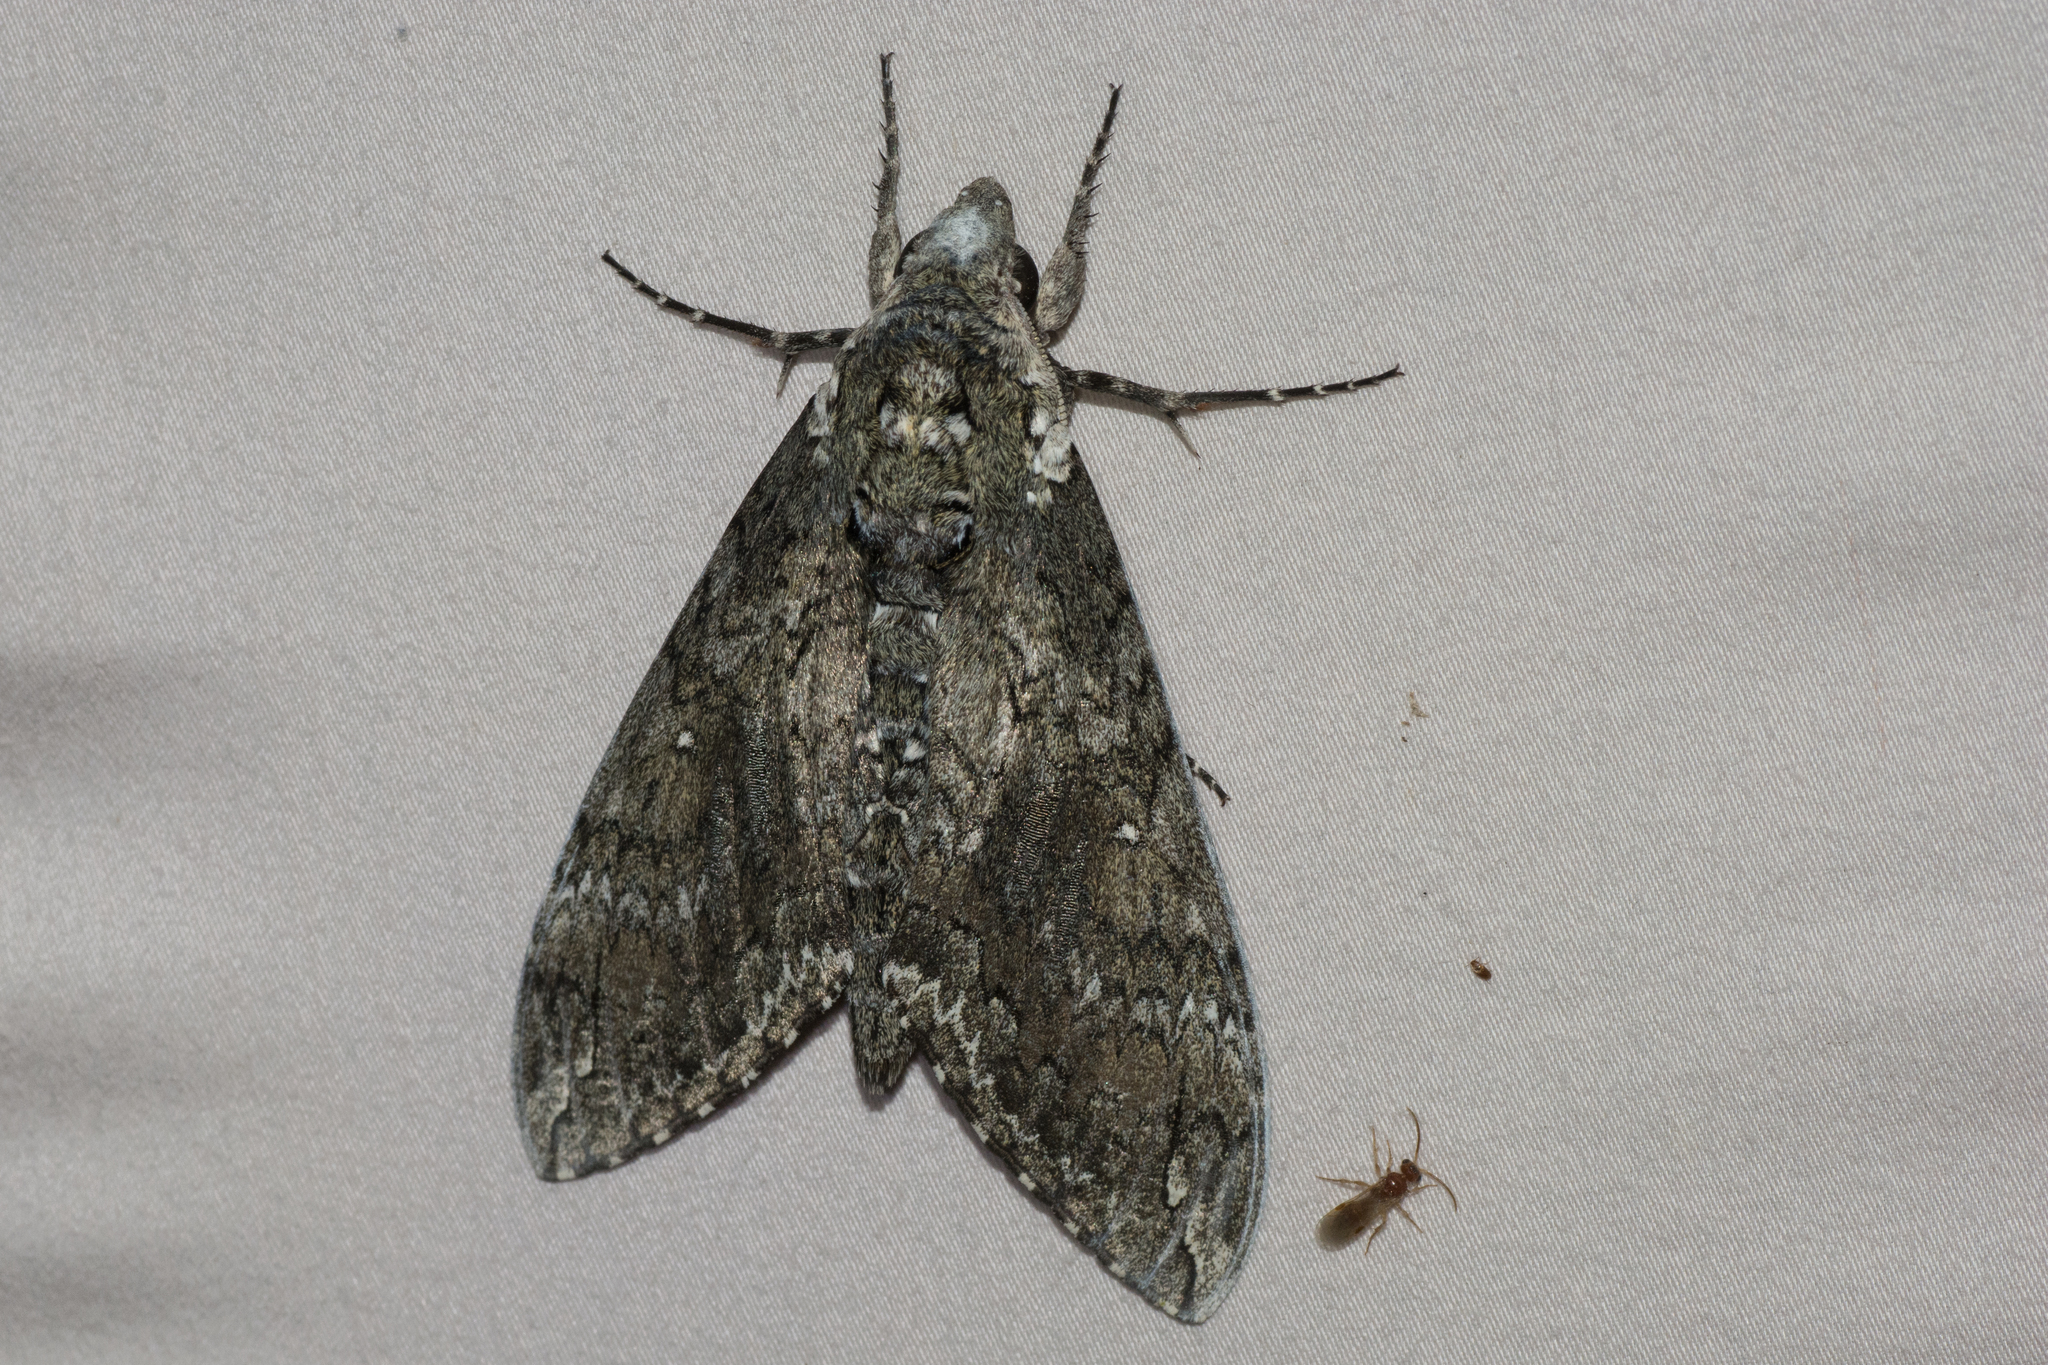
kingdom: Animalia
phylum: Arthropoda
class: Insecta
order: Lepidoptera
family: Sphingidae
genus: Manduca
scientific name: Manduca sexta
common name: Carolina sphinx
